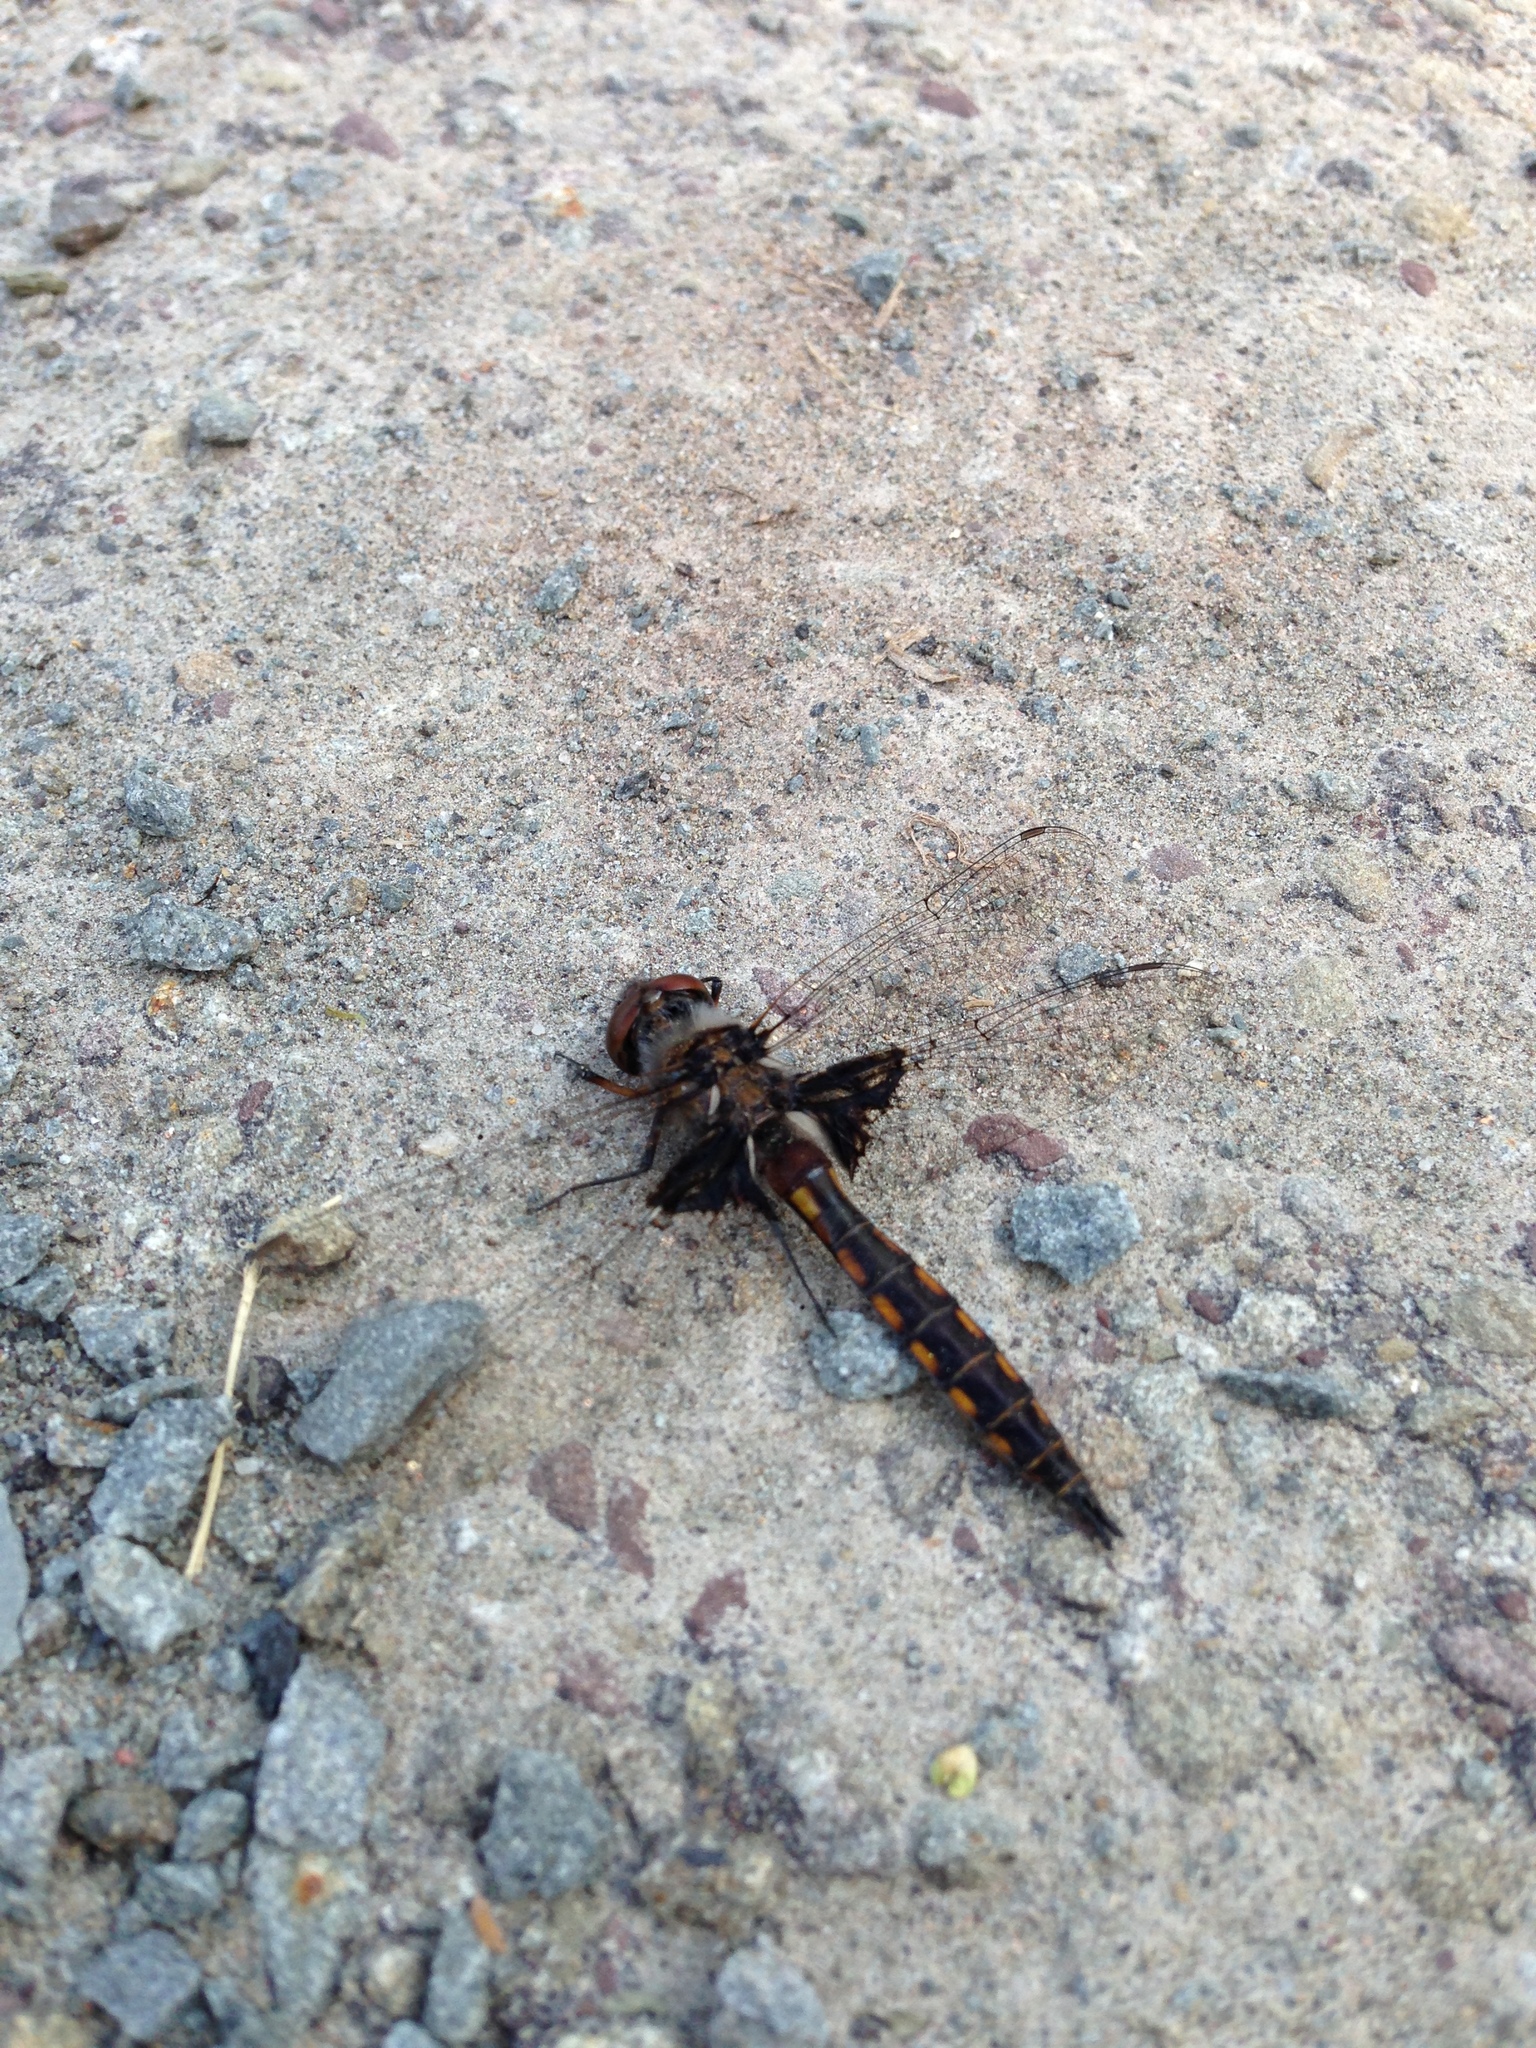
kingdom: Animalia
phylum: Arthropoda
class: Insecta
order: Odonata
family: Corduliidae
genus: Epitheca
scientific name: Epitheca cynosura
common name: Common baskettail
